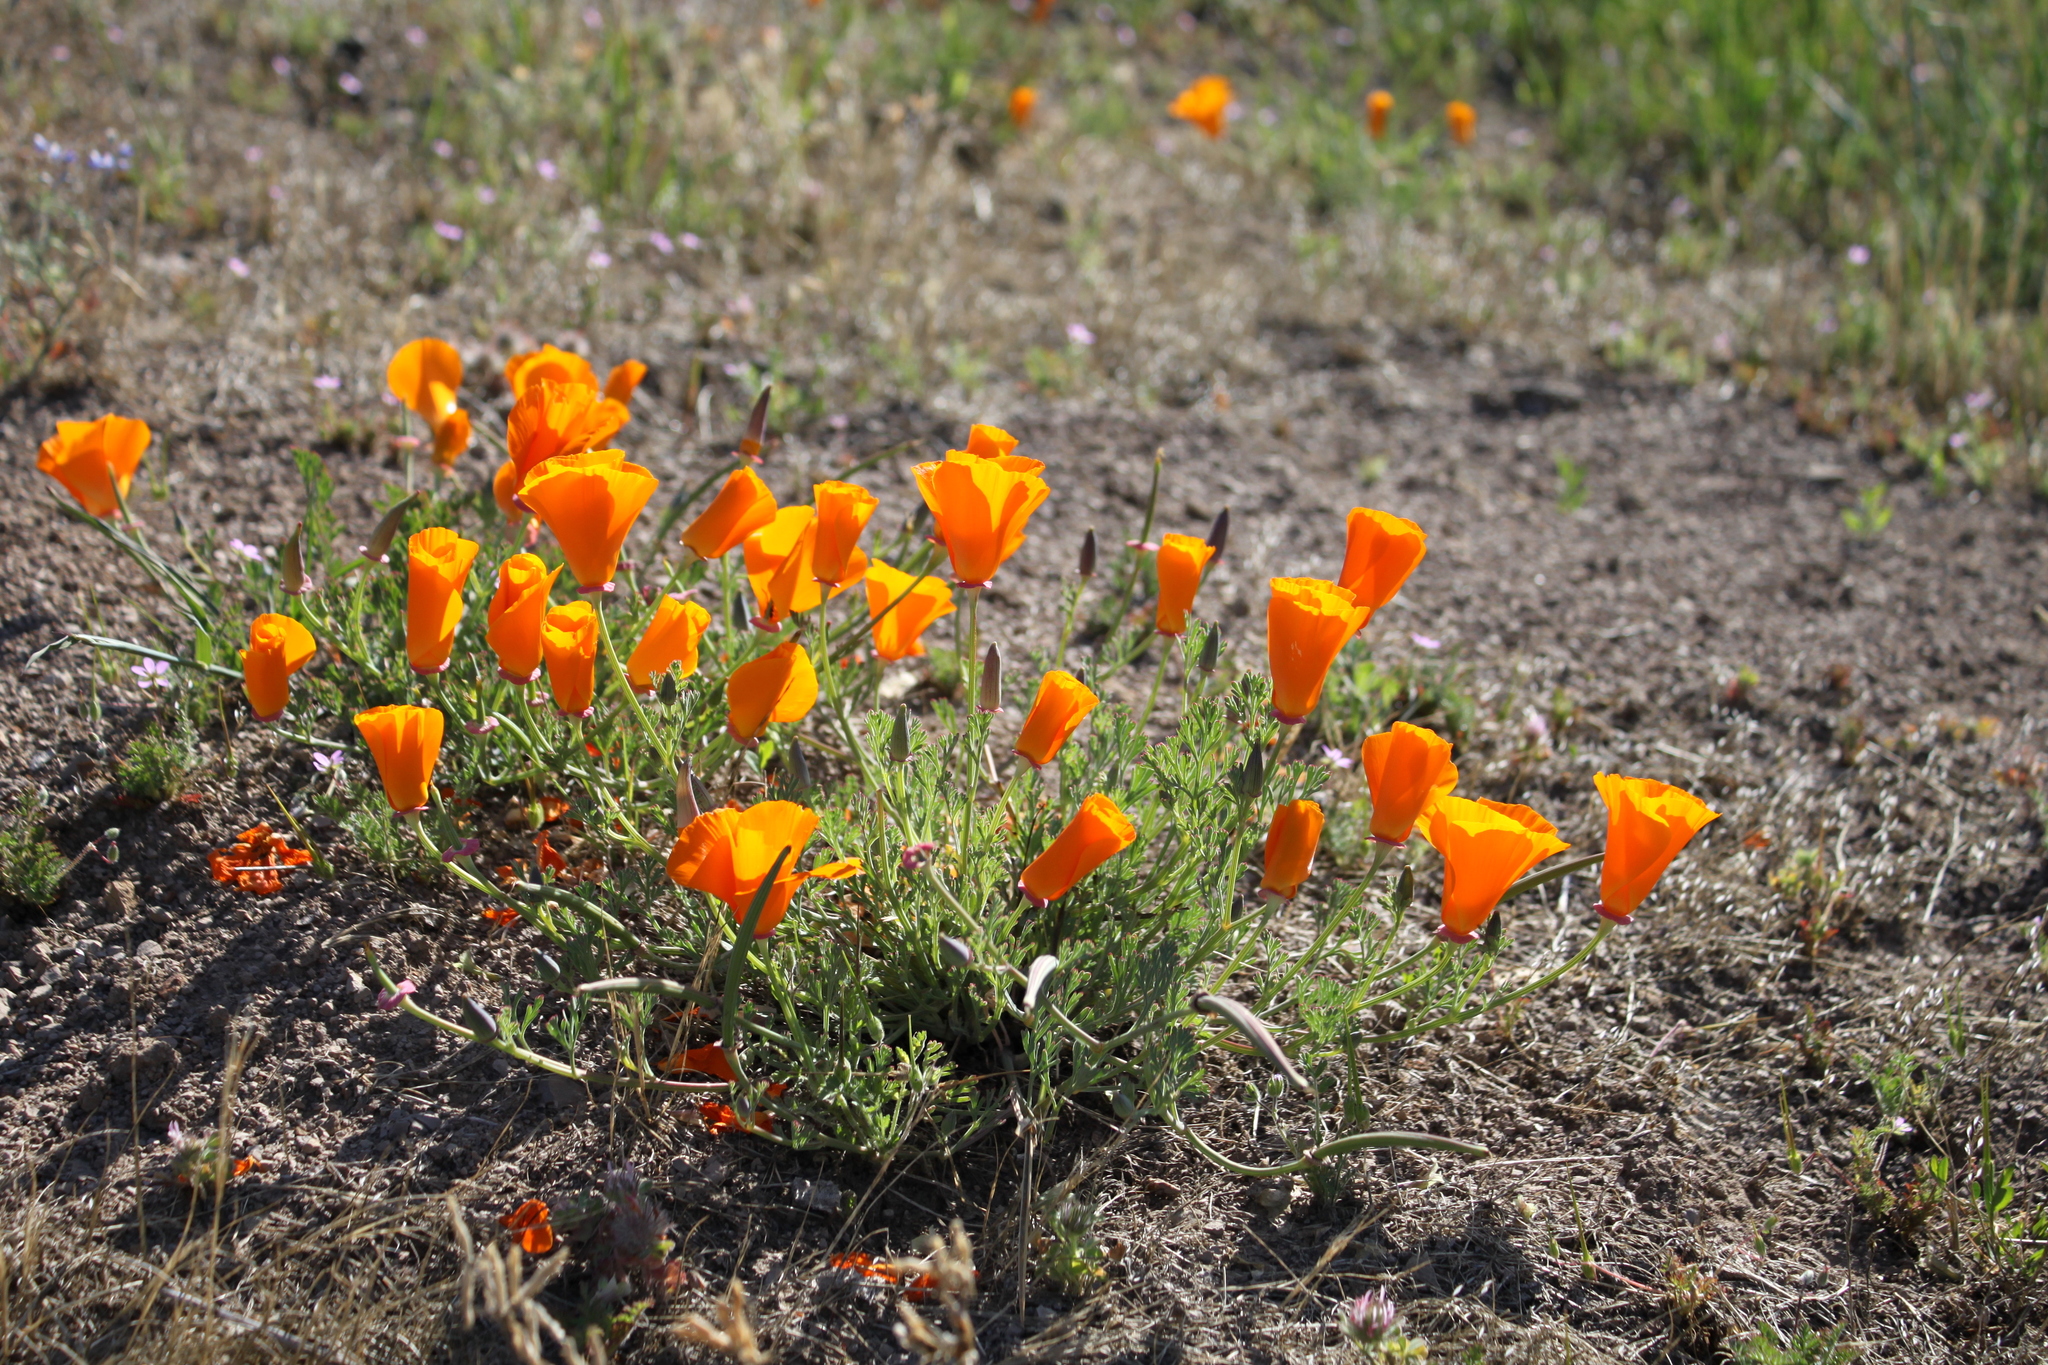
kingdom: Plantae
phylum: Tracheophyta
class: Magnoliopsida
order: Ranunculales
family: Papaveraceae
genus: Eschscholzia
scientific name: Eschscholzia californica
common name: California poppy
